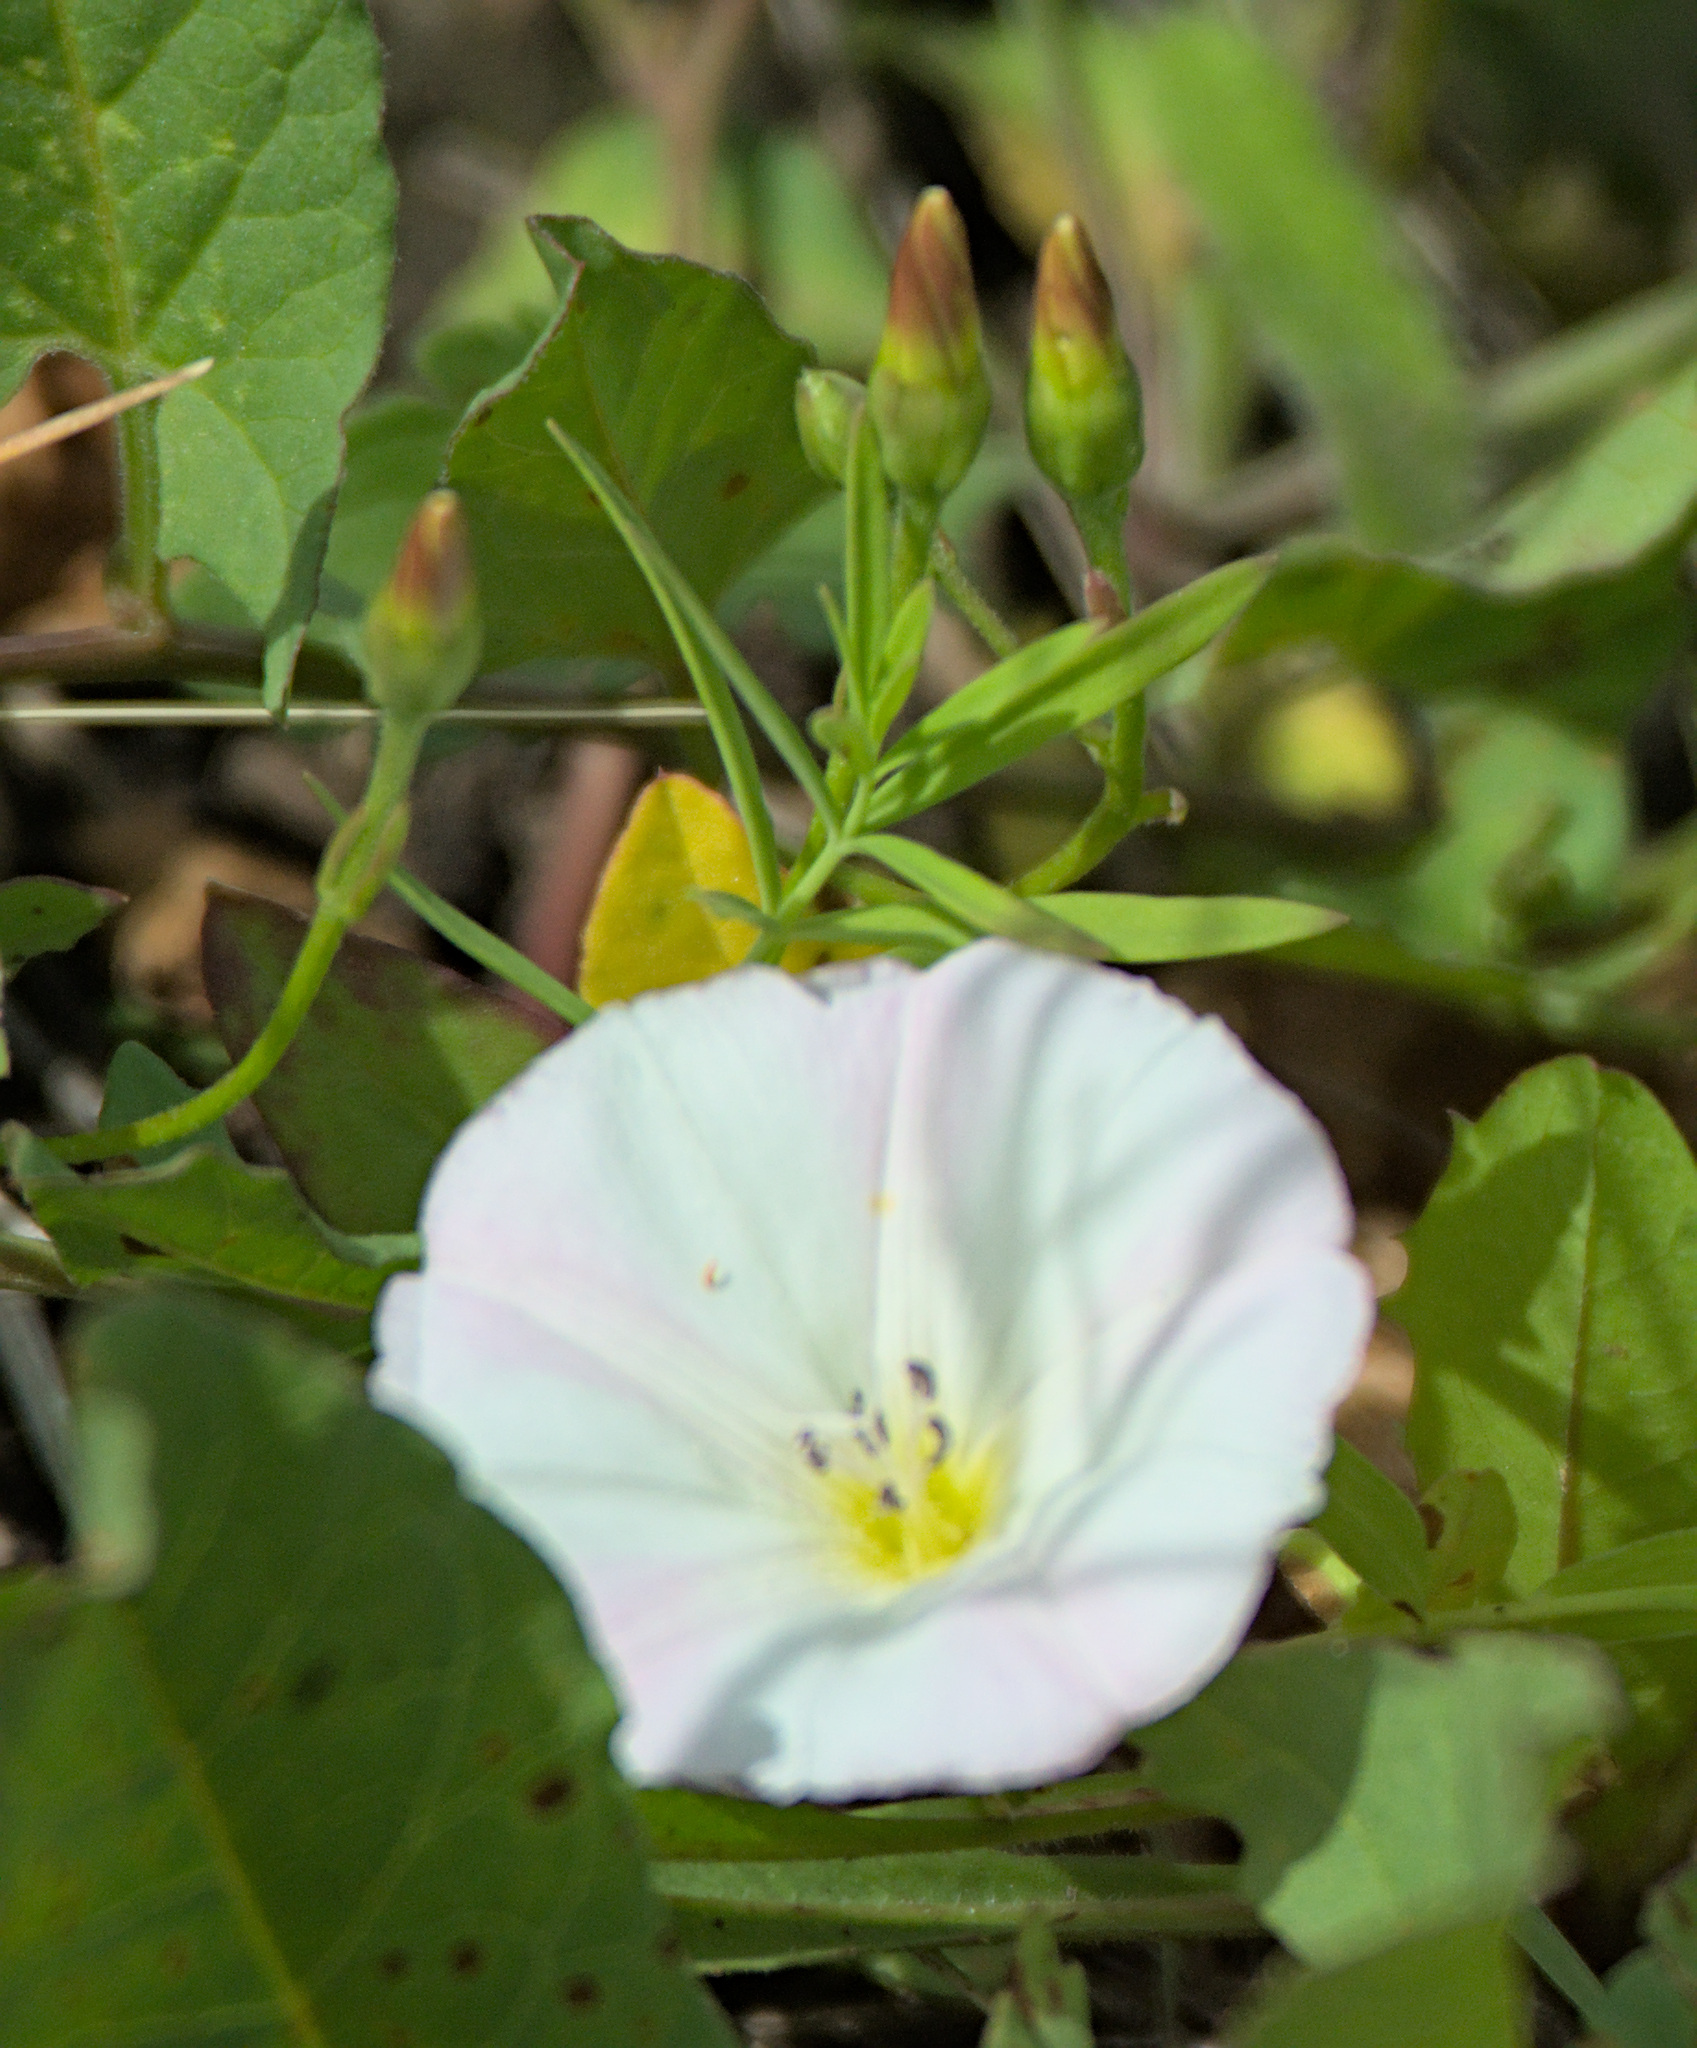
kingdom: Plantae
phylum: Tracheophyta
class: Magnoliopsida
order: Solanales
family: Convolvulaceae
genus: Convolvulus
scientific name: Convolvulus arvensis
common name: Field bindweed
